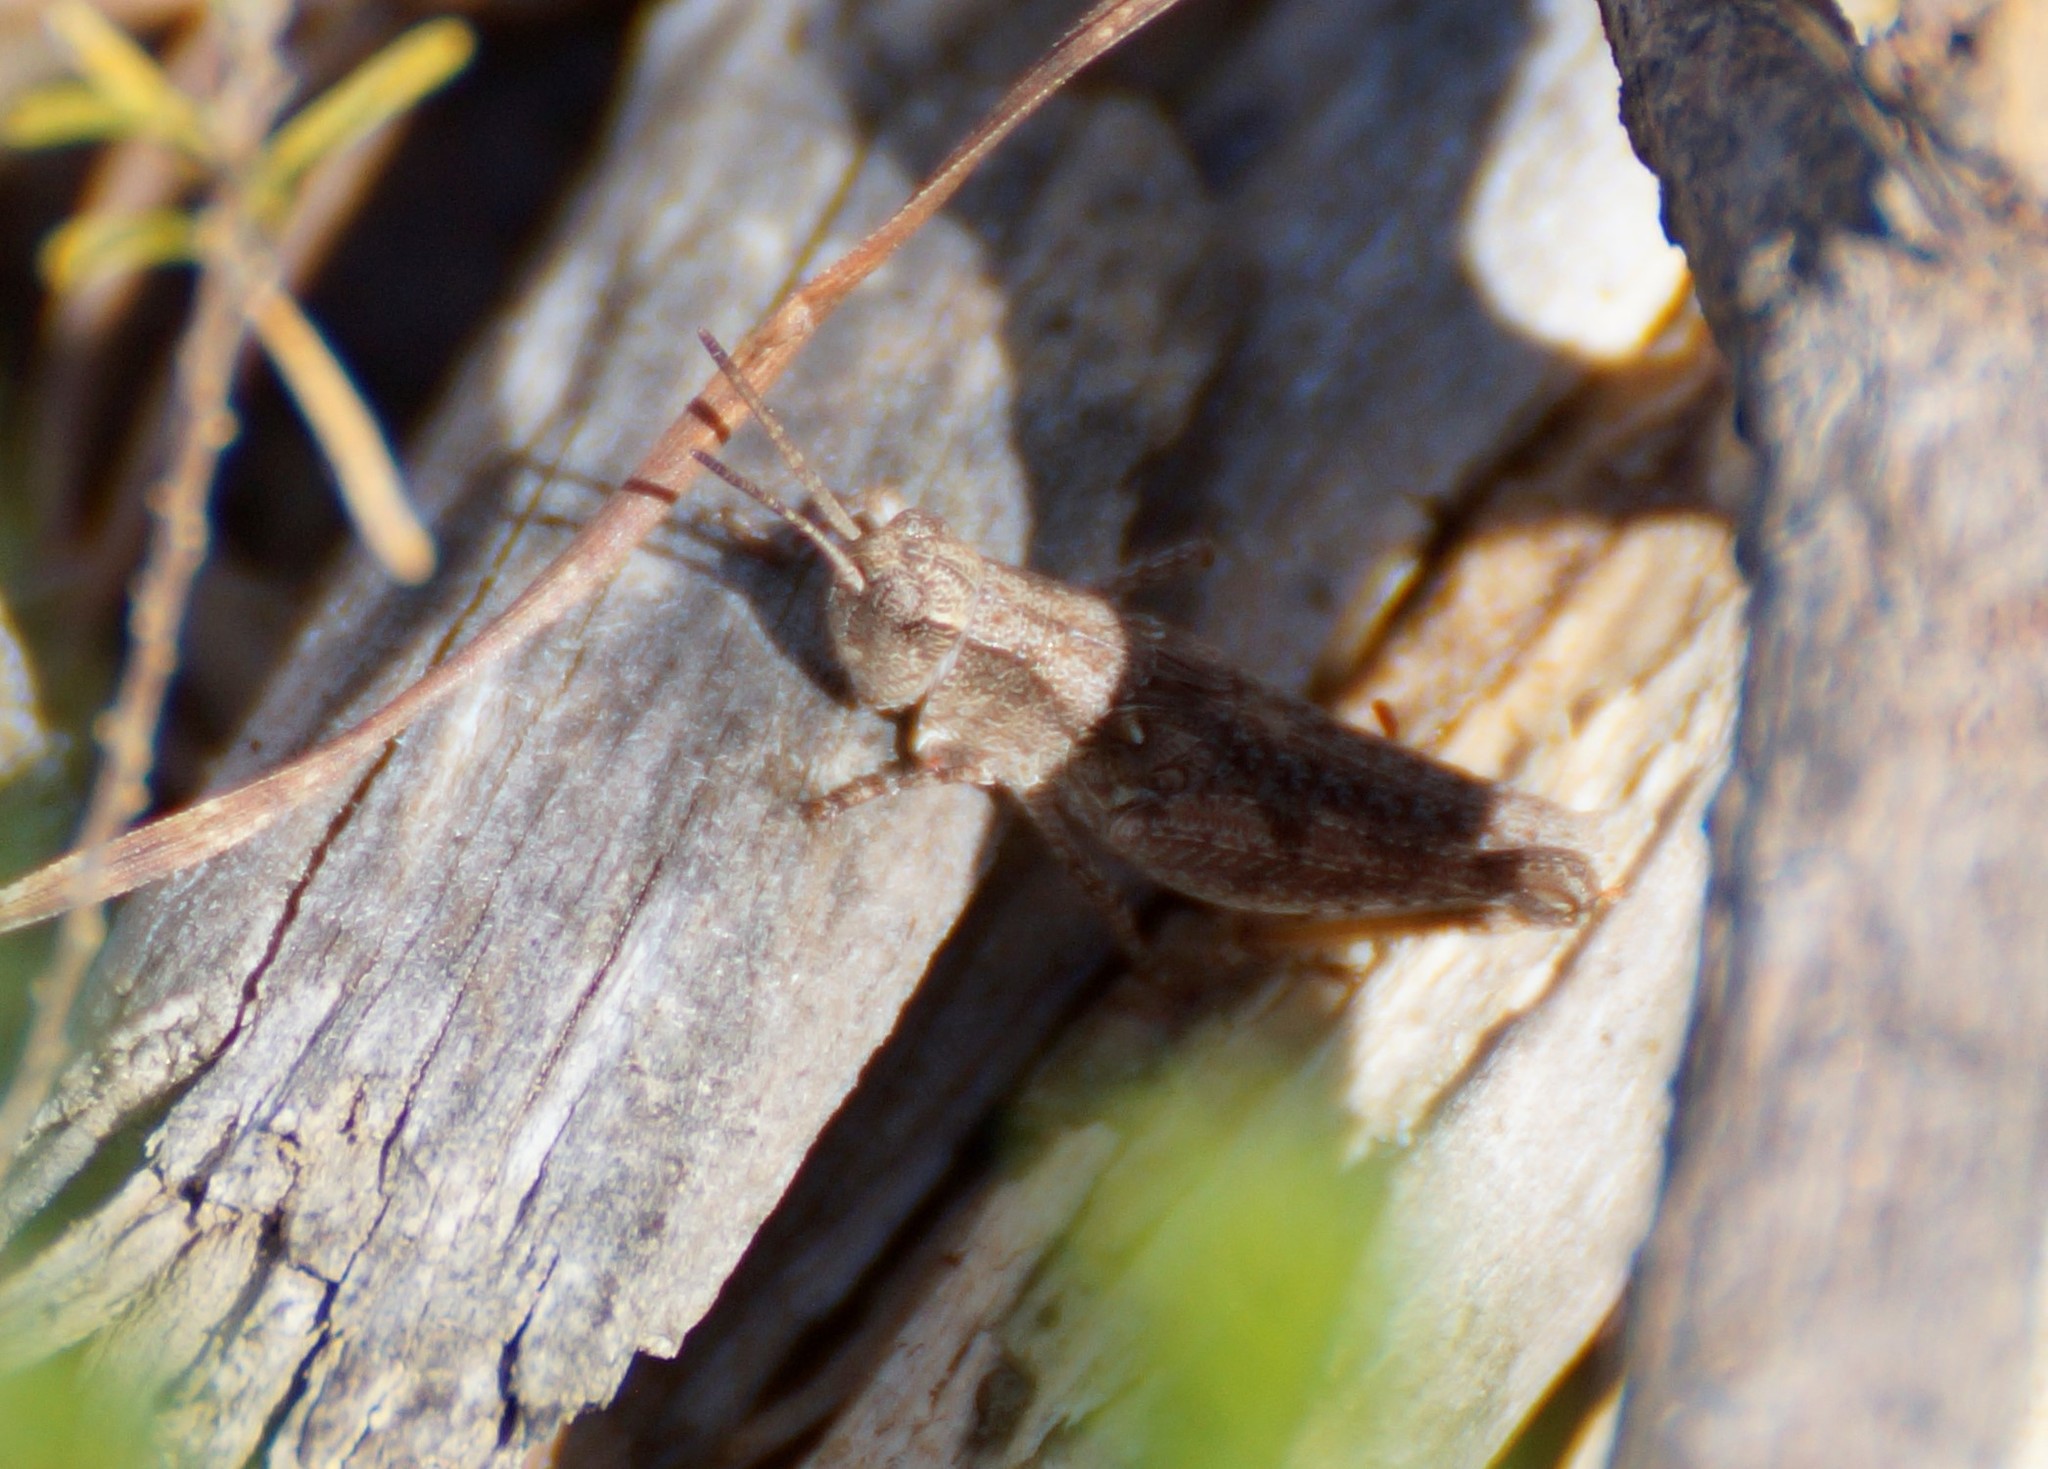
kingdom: Animalia
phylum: Arthropoda
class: Insecta
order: Orthoptera
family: Acrididae
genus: Phaulacridium
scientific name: Phaulacridium vittatum
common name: Wingless grasshopper
